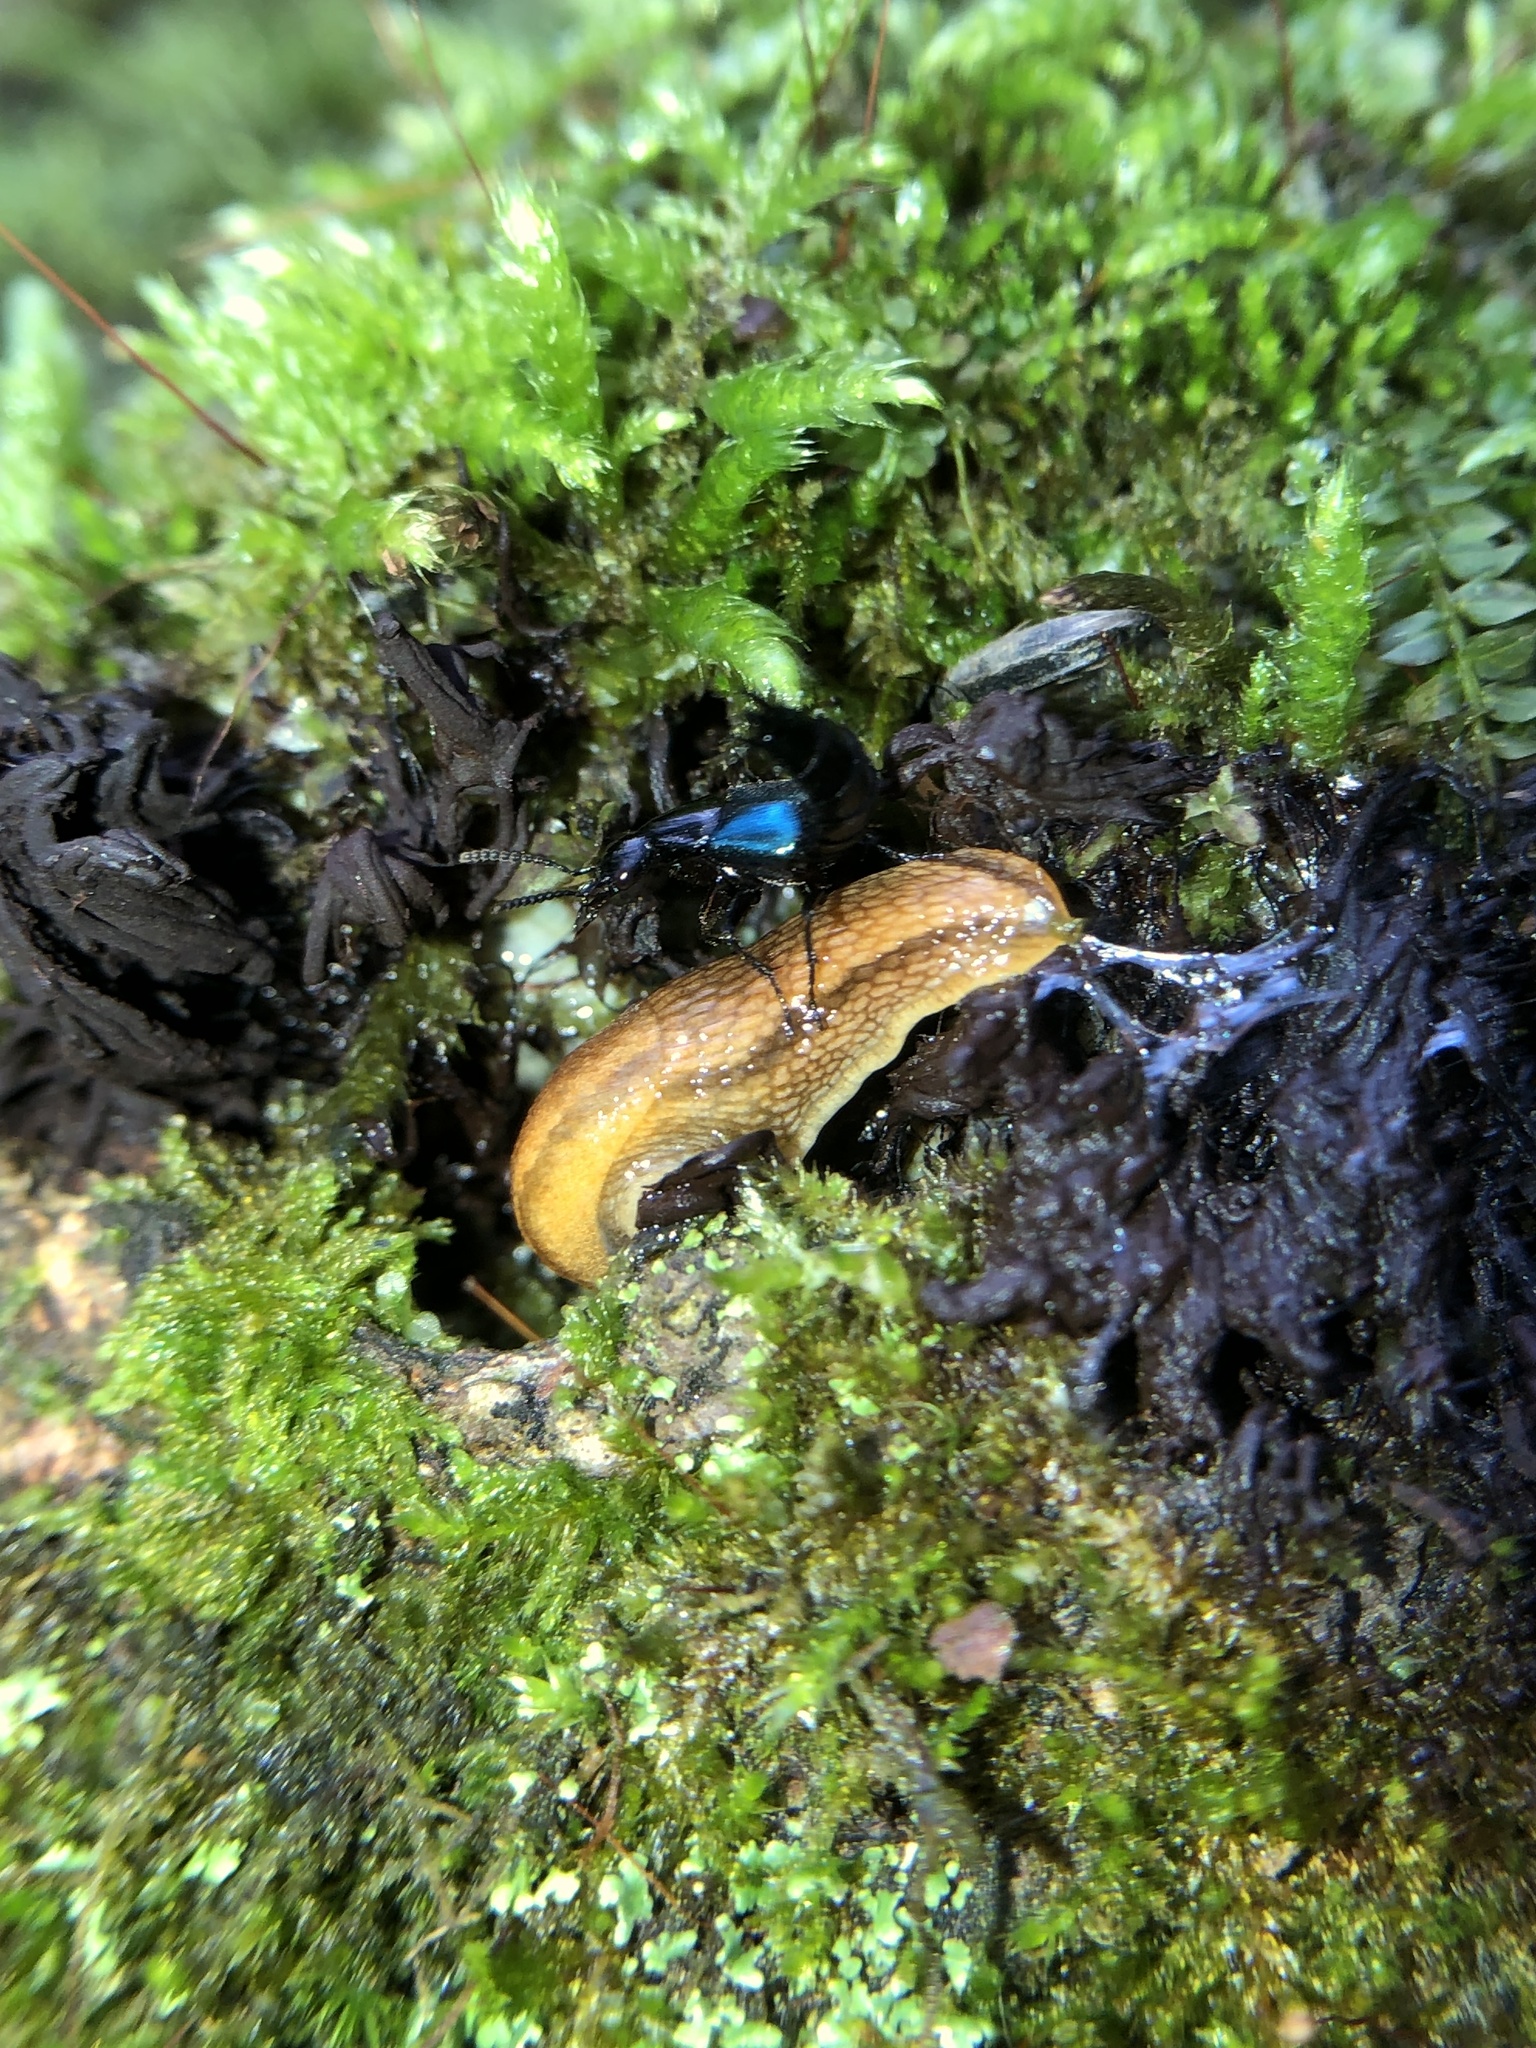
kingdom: Animalia
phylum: Arthropoda
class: Insecta
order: Coleoptera
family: Staphylinidae
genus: Philonthus
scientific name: Philonthus caeruleipennis
